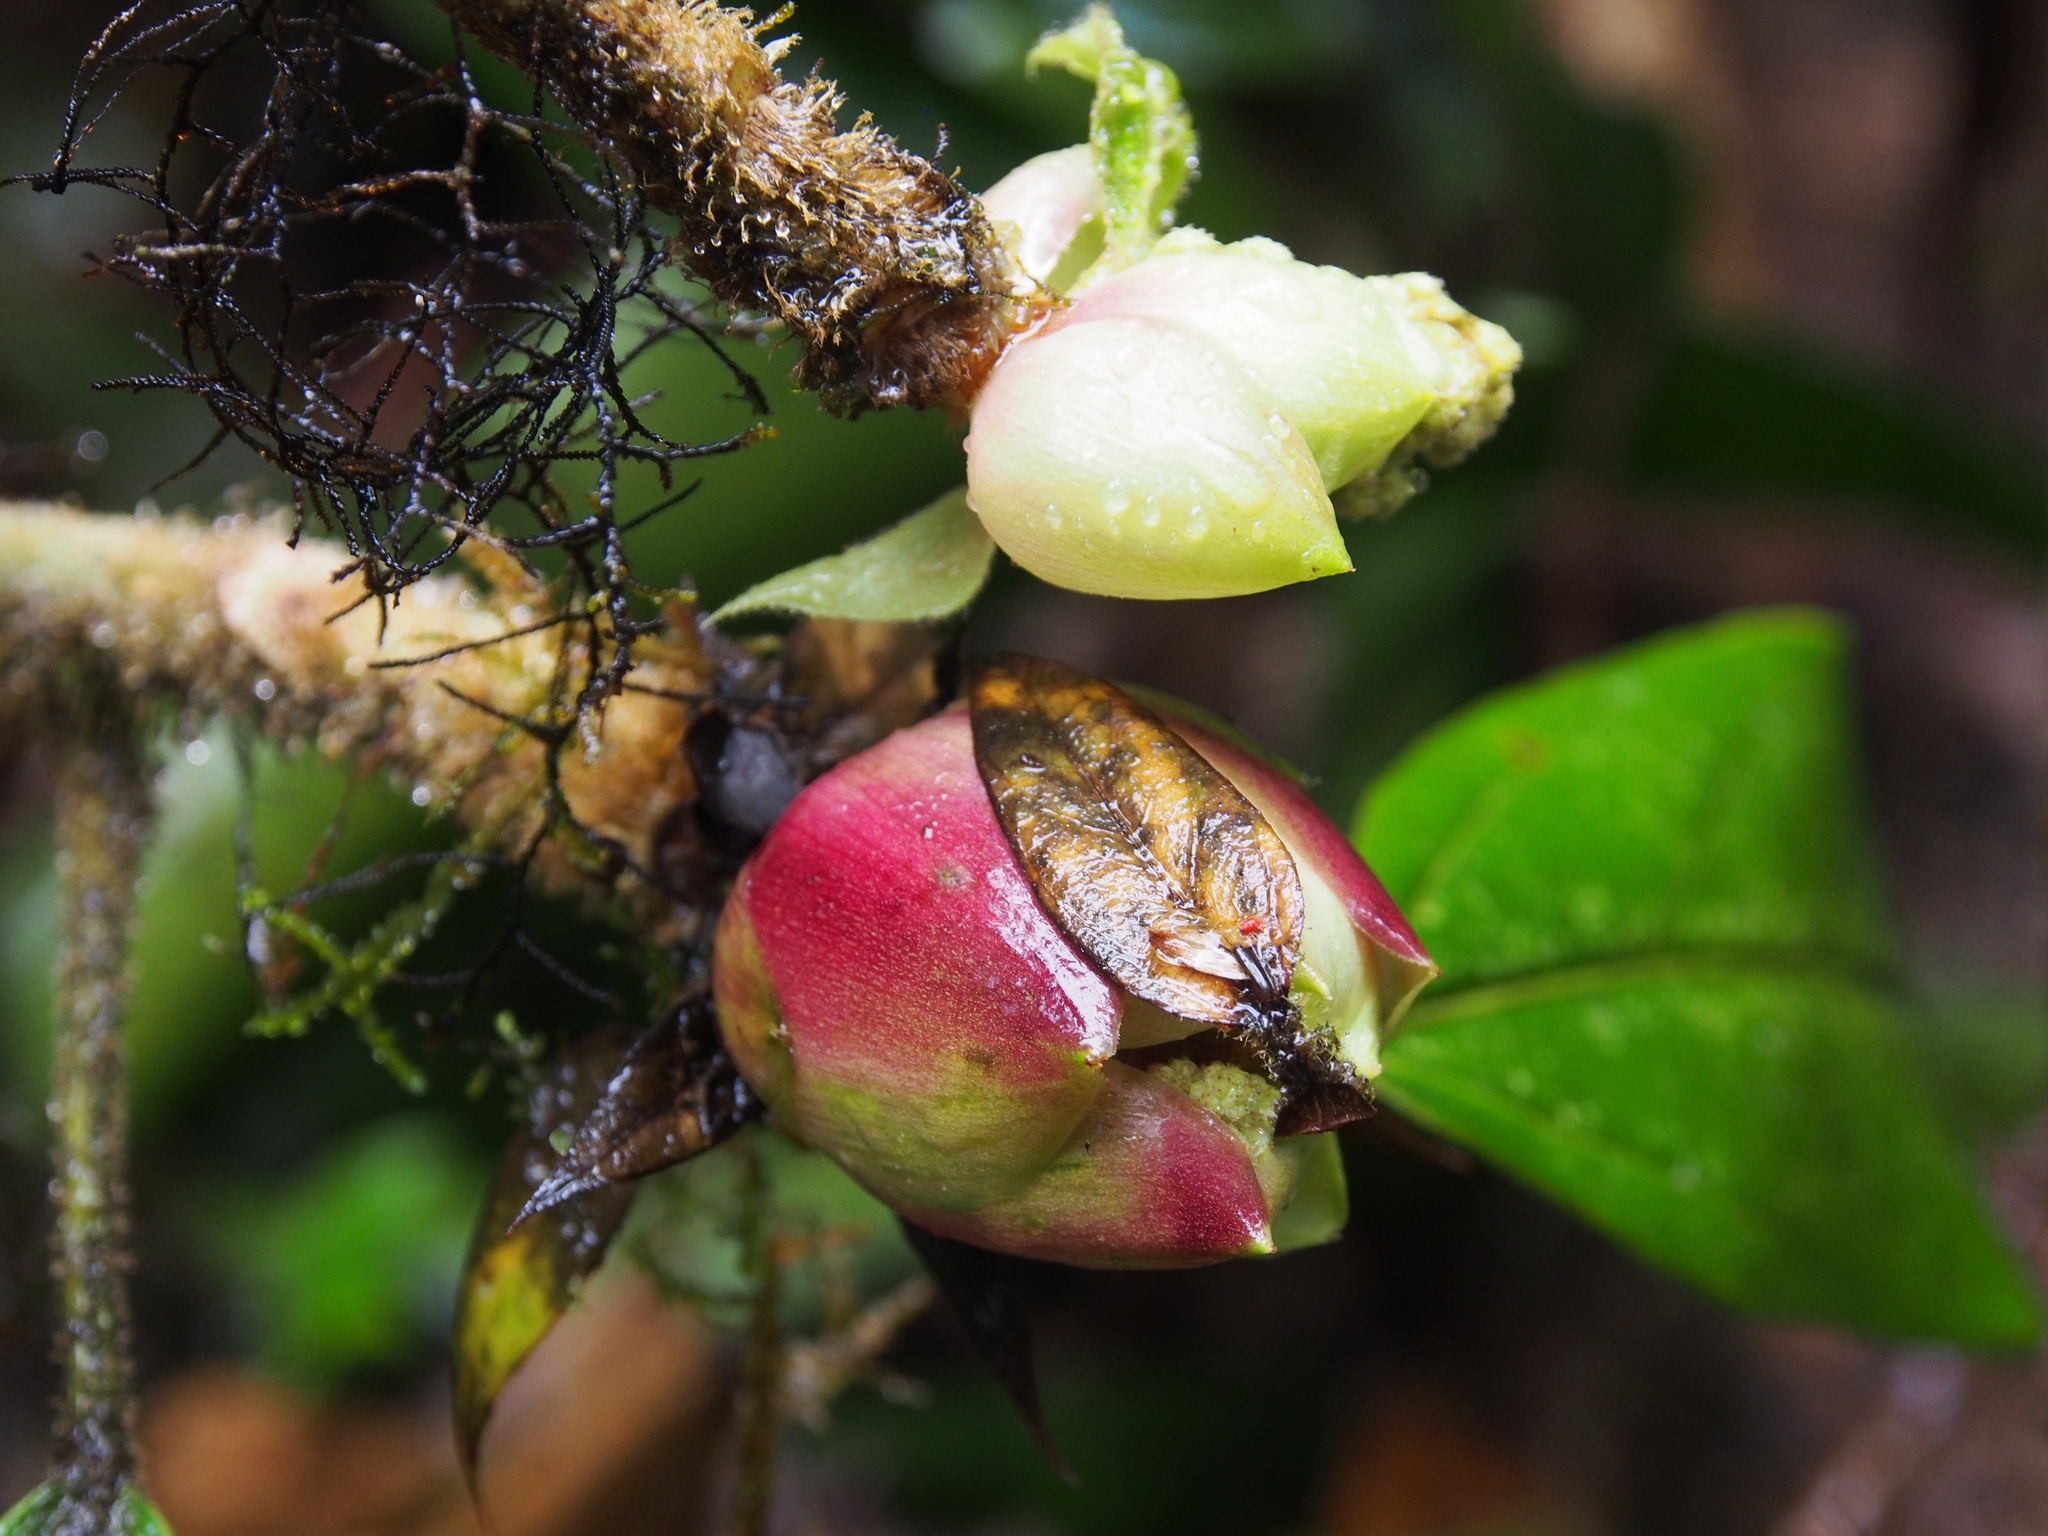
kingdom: Plantae
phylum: Tracheophyta
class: Magnoliopsida
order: Ericales
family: Ericaceae
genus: Cavendishia
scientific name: Cavendishia bracteata
